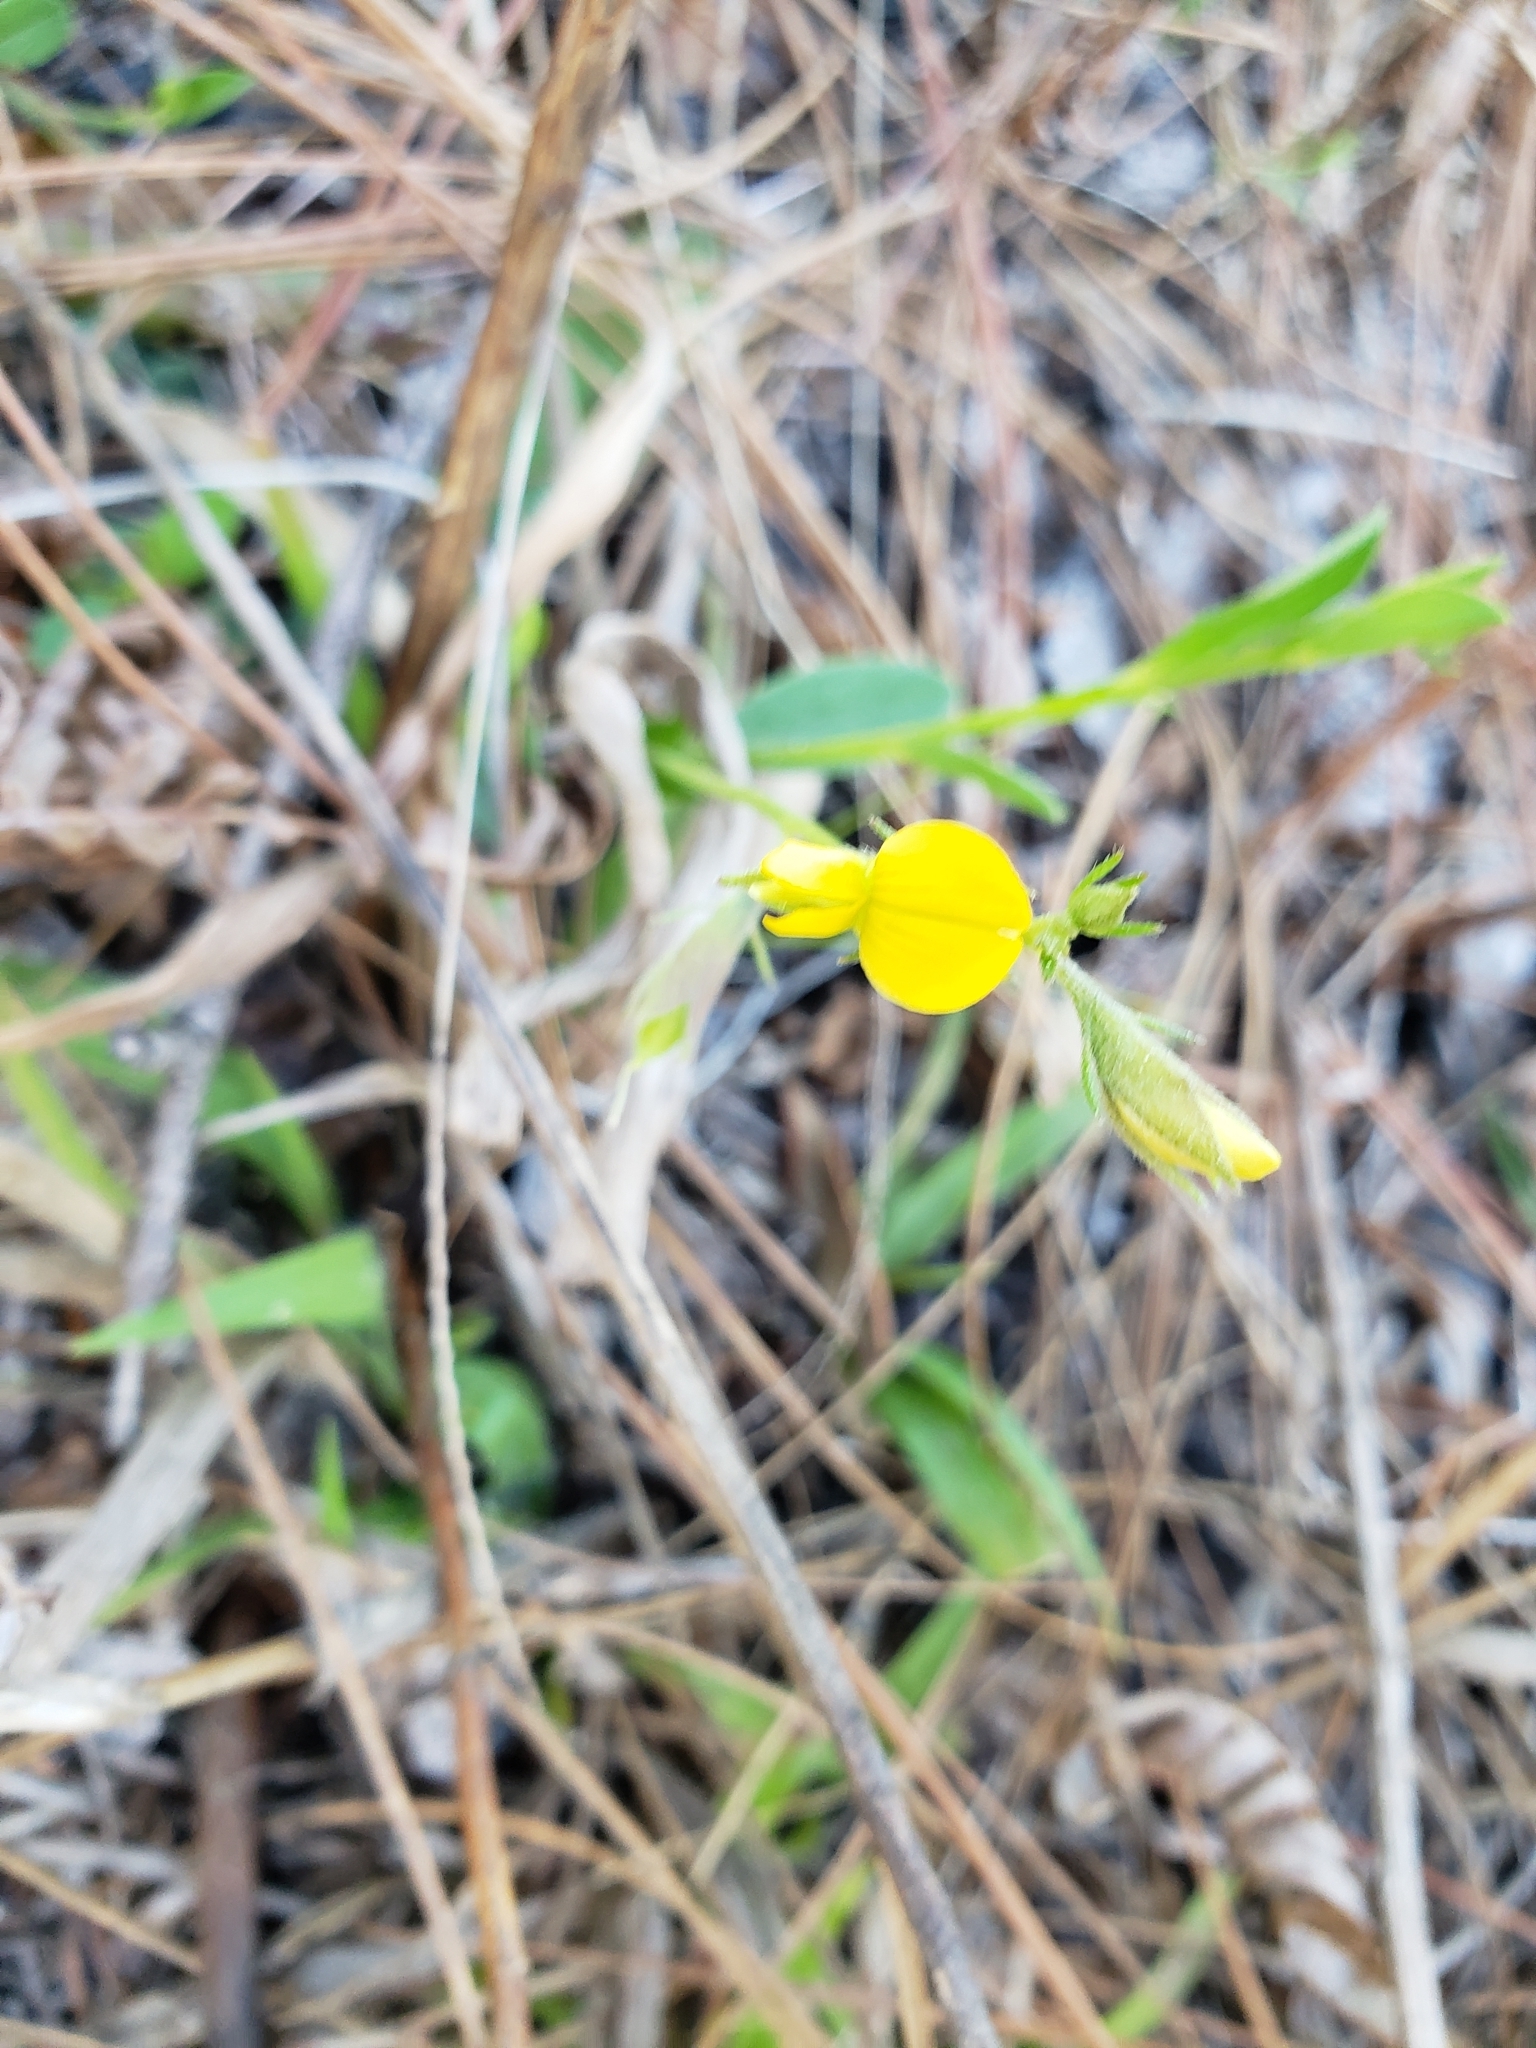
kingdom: Plantae
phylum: Tracheophyta
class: Magnoliopsida
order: Fabales
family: Fabaceae
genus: Crotalaria
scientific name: Crotalaria rotundifolia
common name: Prostrate rattlebox
